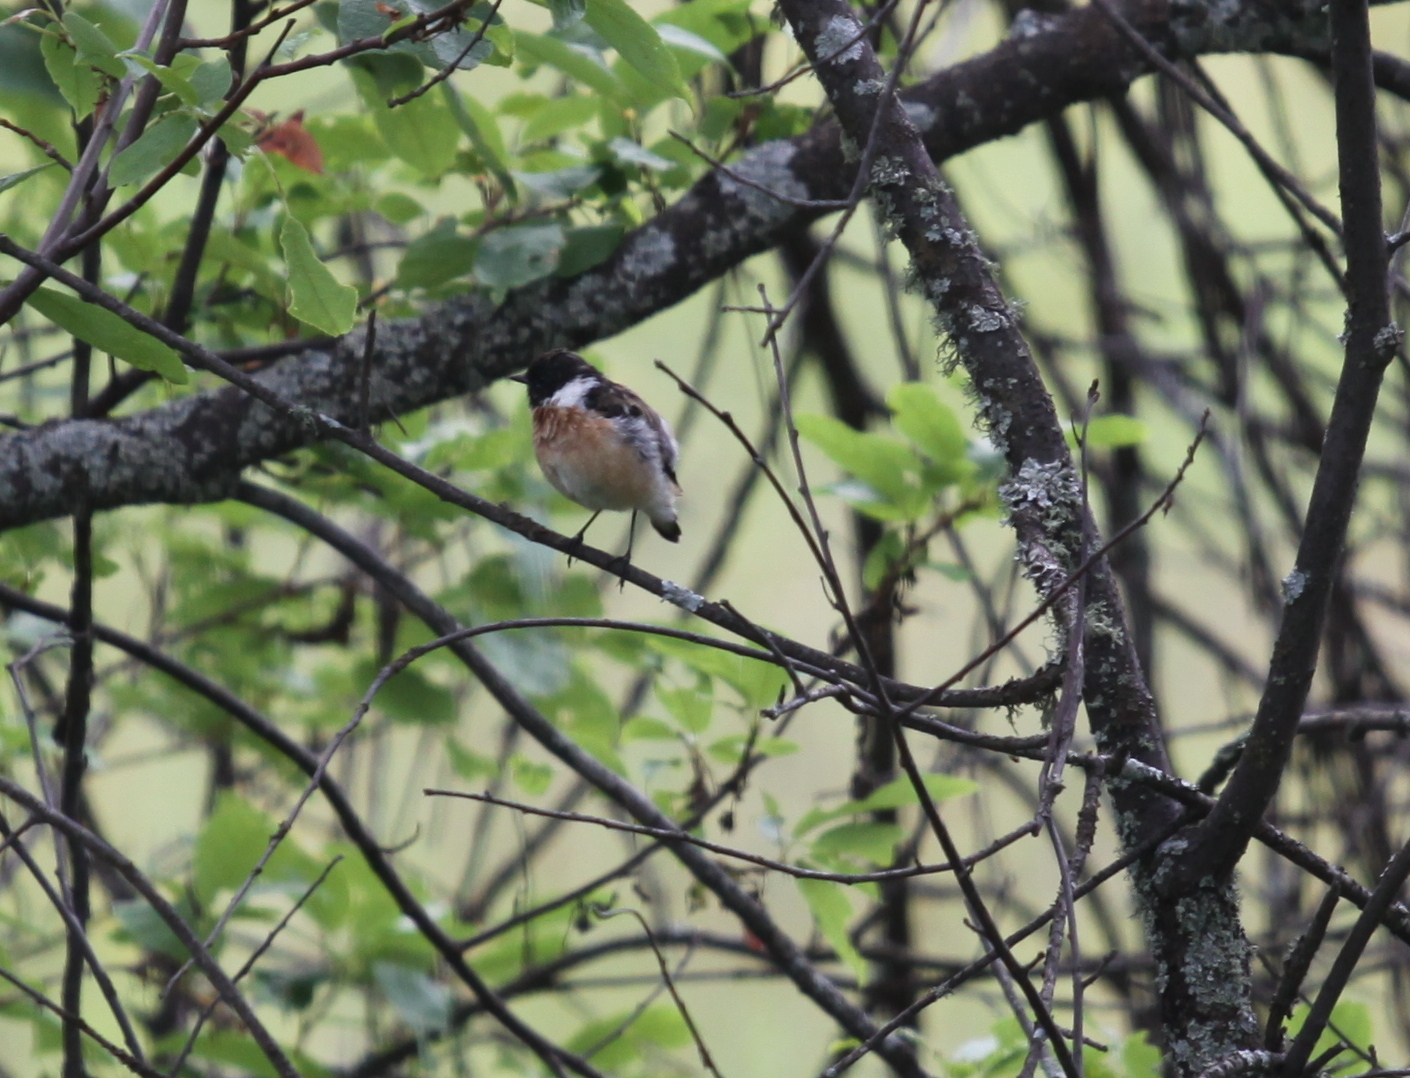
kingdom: Animalia
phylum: Chordata
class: Aves
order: Passeriformes
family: Muscicapidae
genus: Saxicola
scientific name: Saxicola maurus
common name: Siberian stonechat
